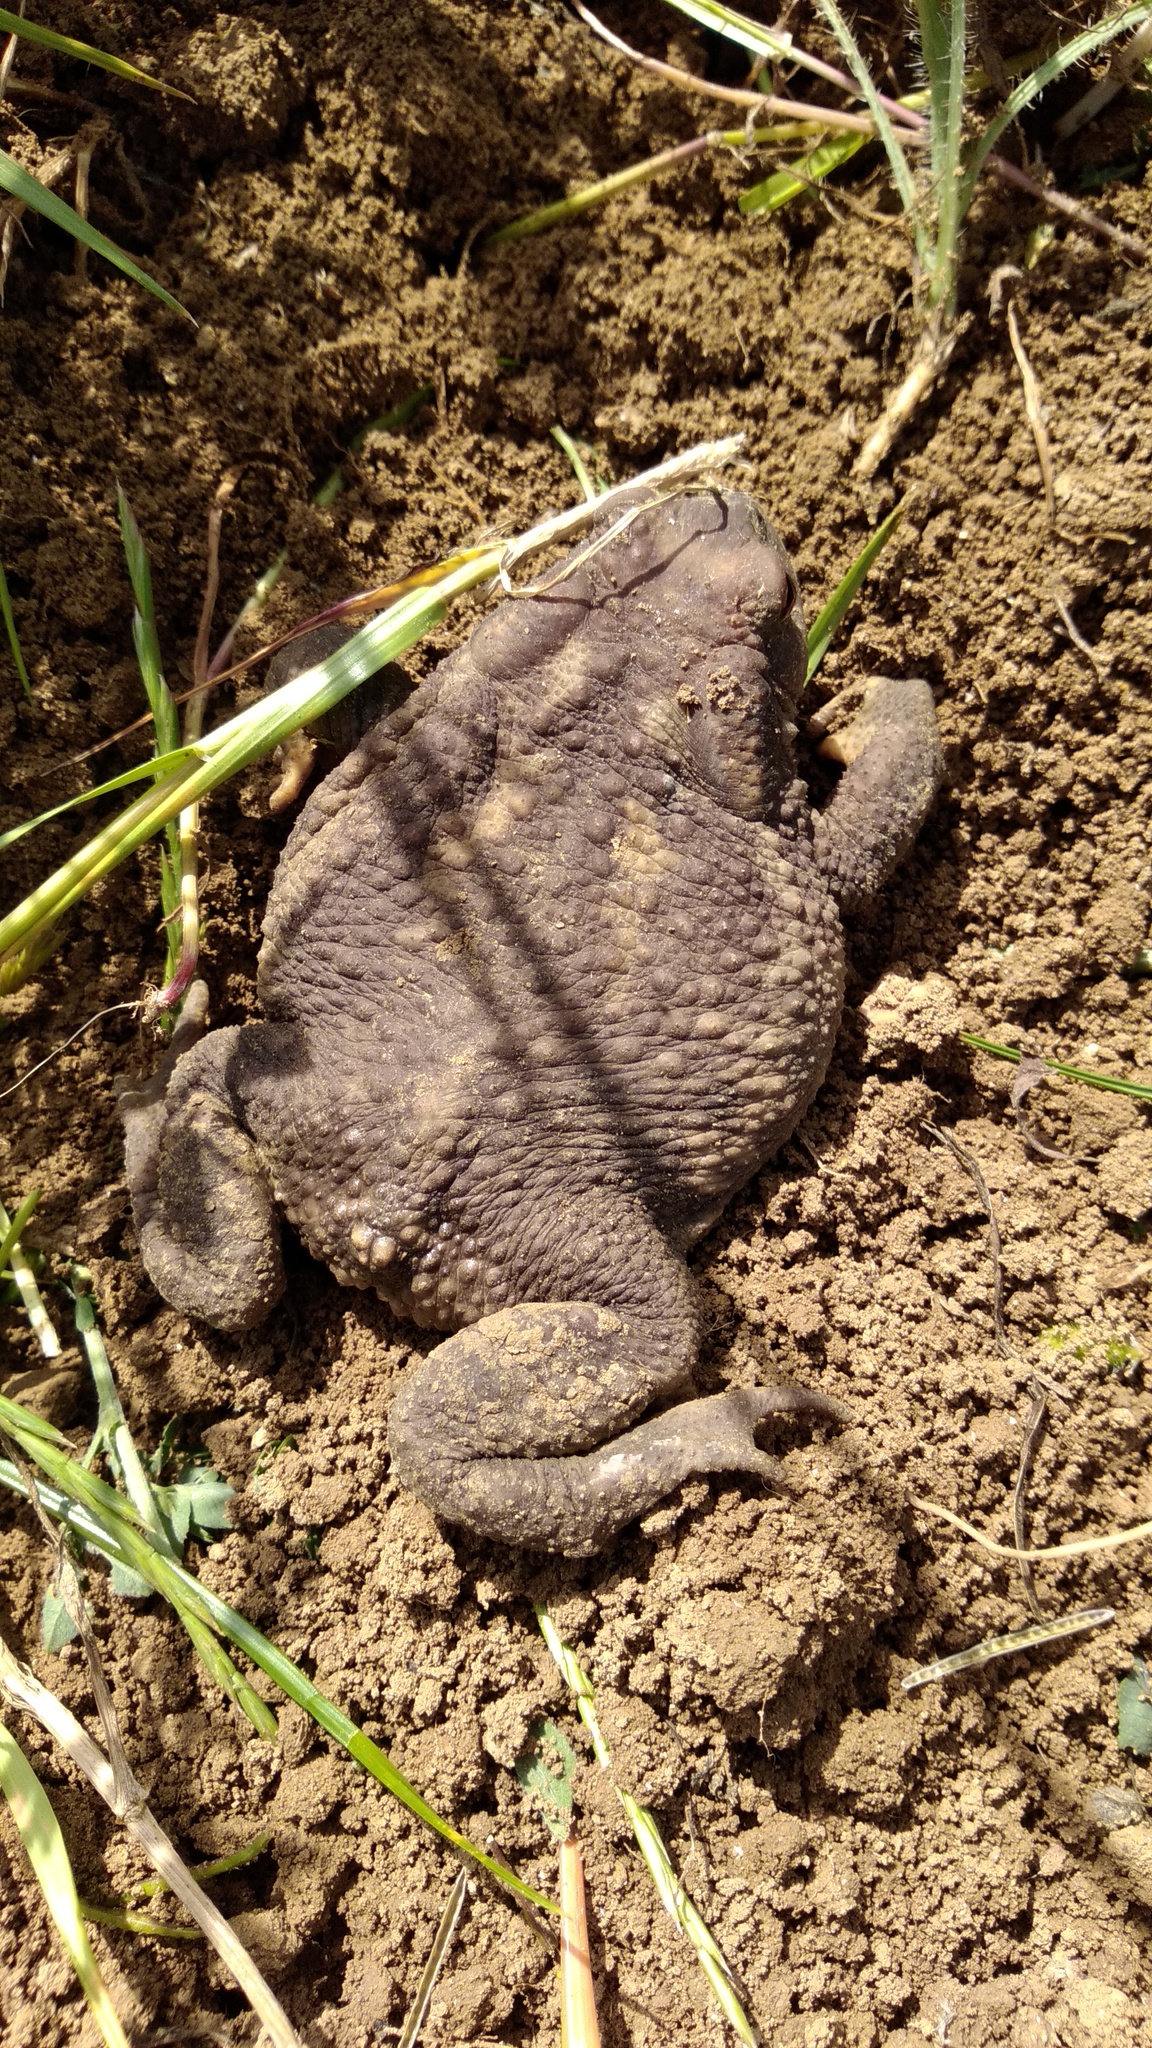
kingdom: Animalia
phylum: Chordata
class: Amphibia
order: Anura
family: Bufonidae
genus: Bufo
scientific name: Bufo spinosus
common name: Western common toad
